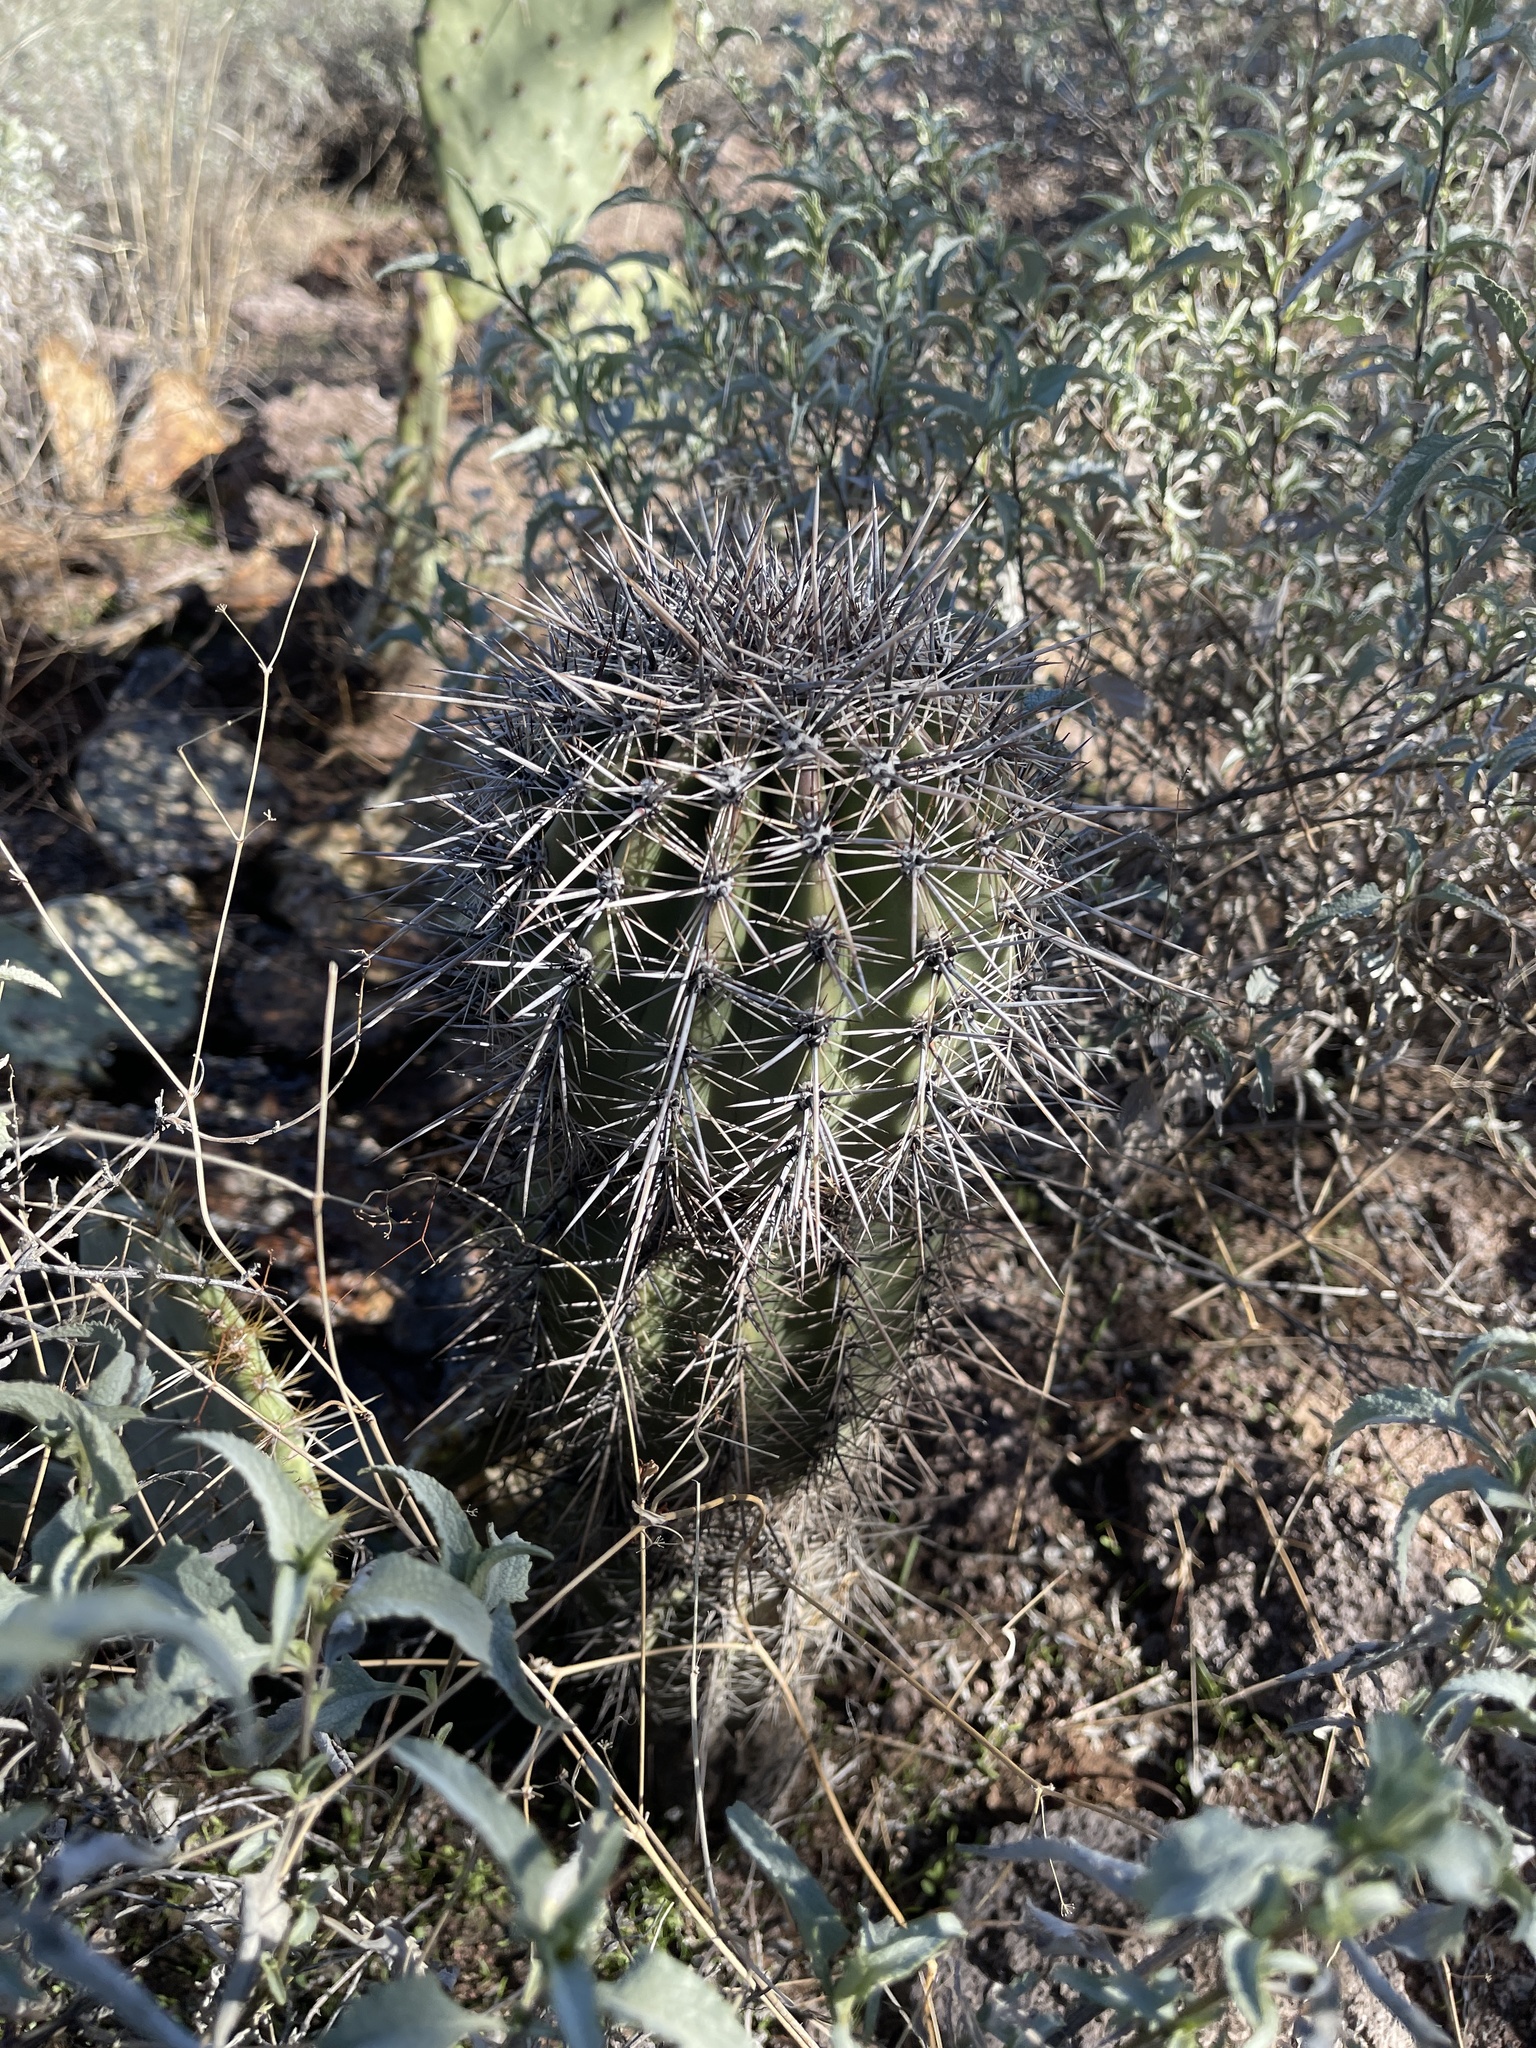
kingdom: Plantae
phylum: Tracheophyta
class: Magnoliopsida
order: Caryophyllales
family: Cactaceae
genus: Carnegiea
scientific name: Carnegiea gigantea
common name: Saguaro
